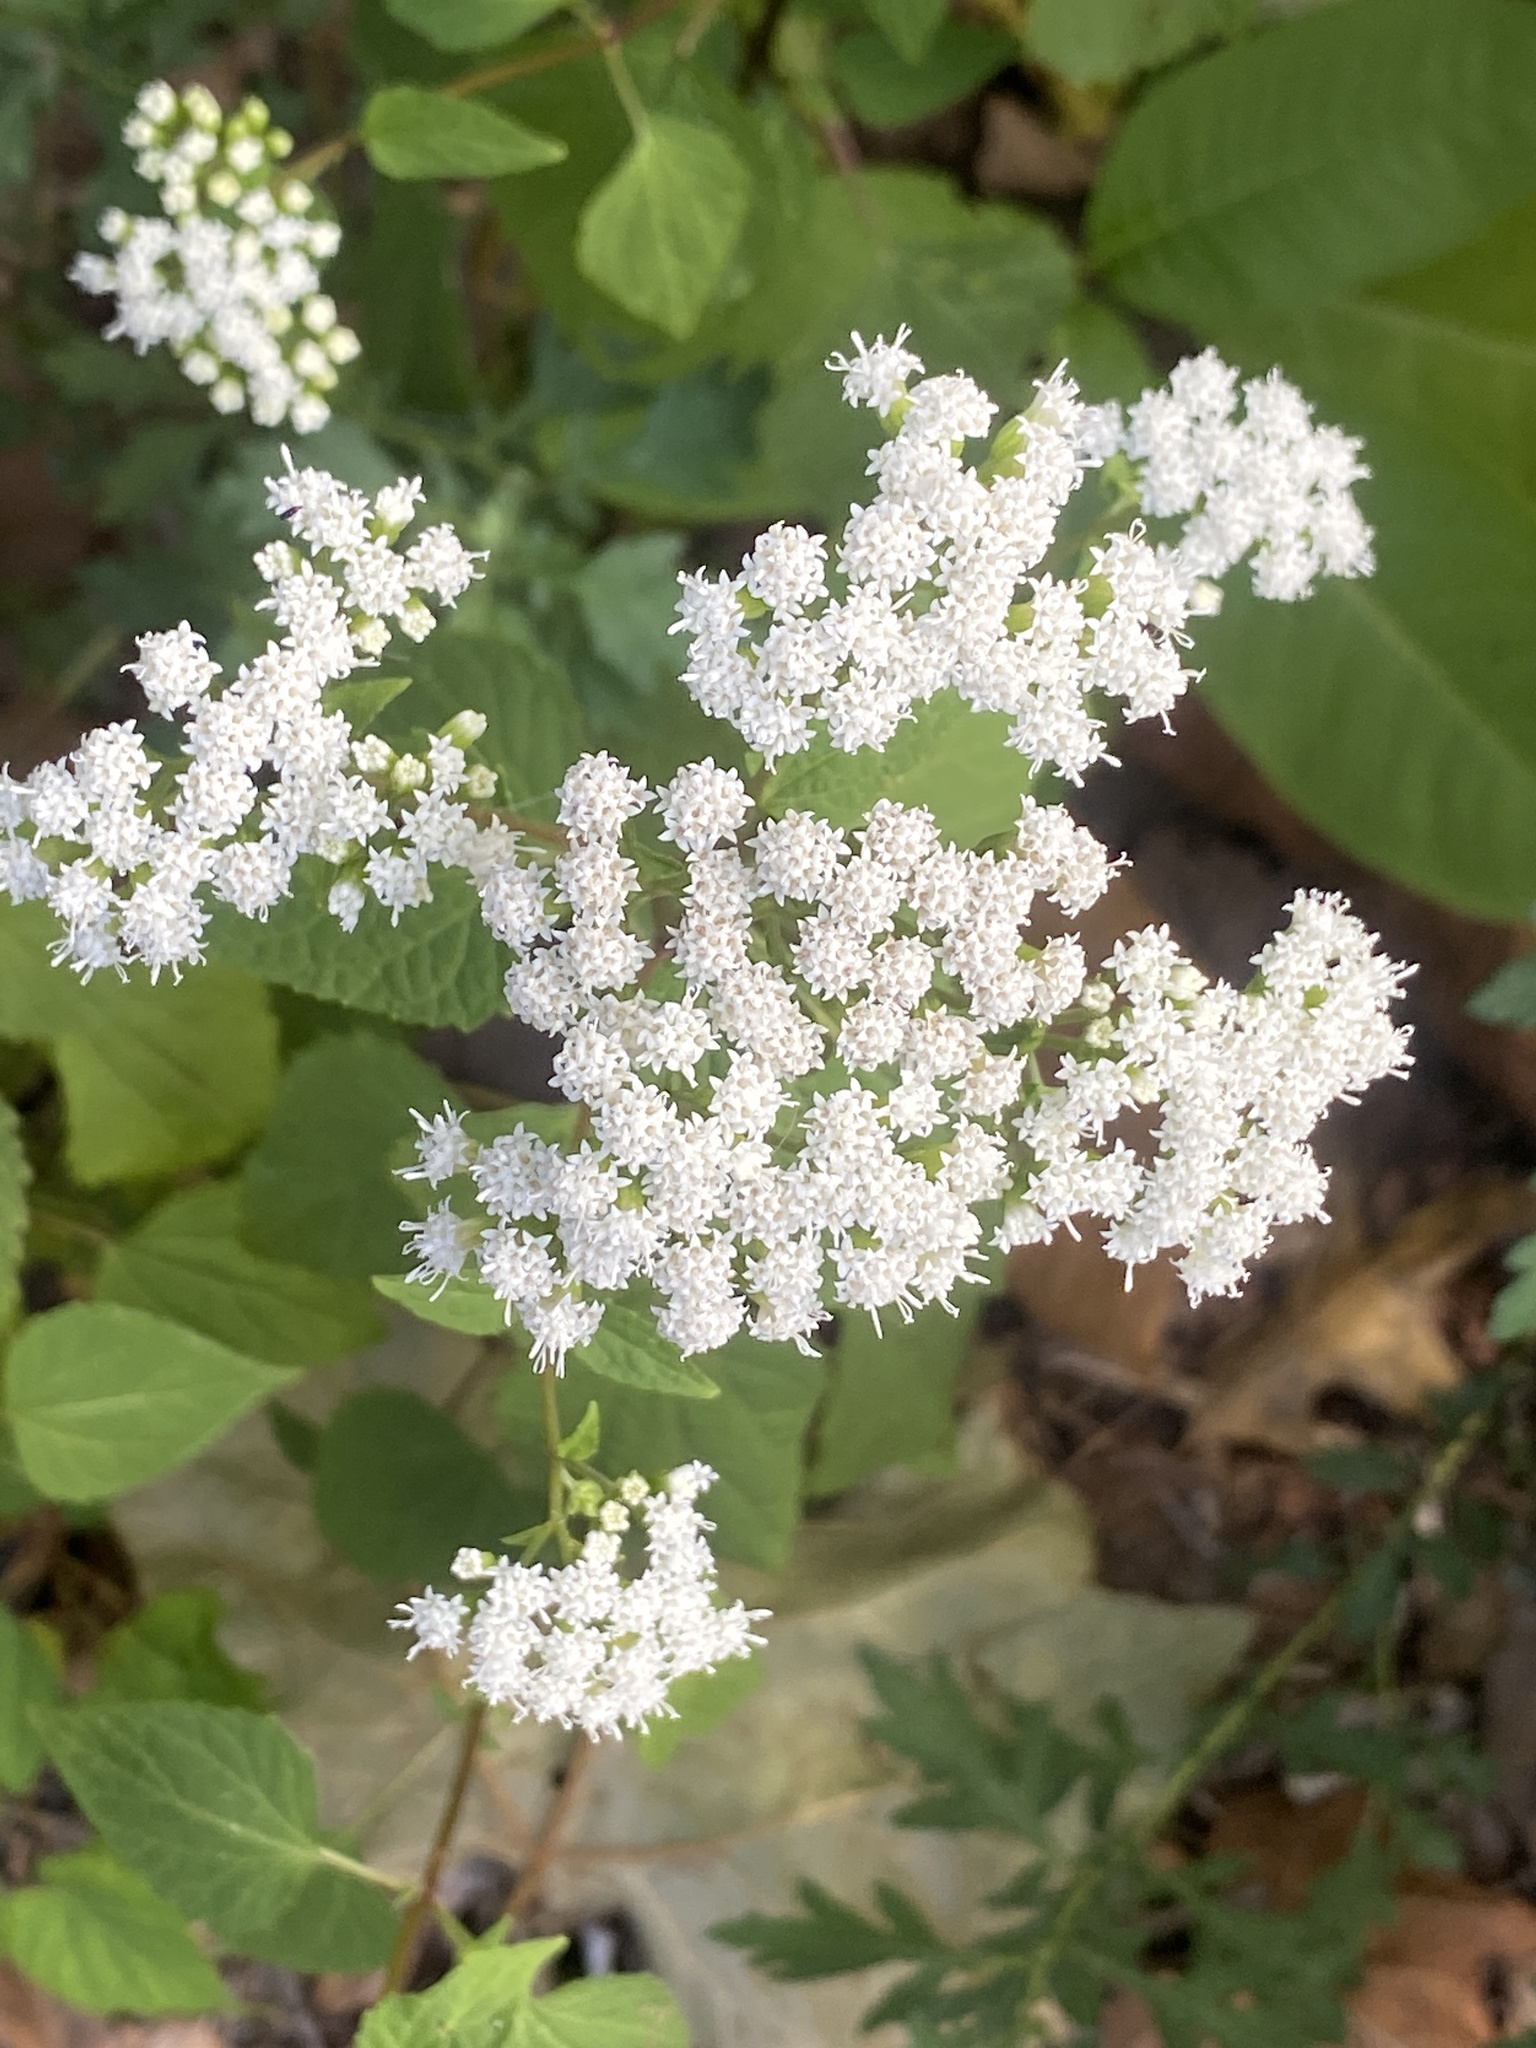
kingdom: Plantae
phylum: Tracheophyta
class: Magnoliopsida
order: Asterales
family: Asteraceae
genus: Ageratina
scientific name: Ageratina altissima
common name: White snakeroot
